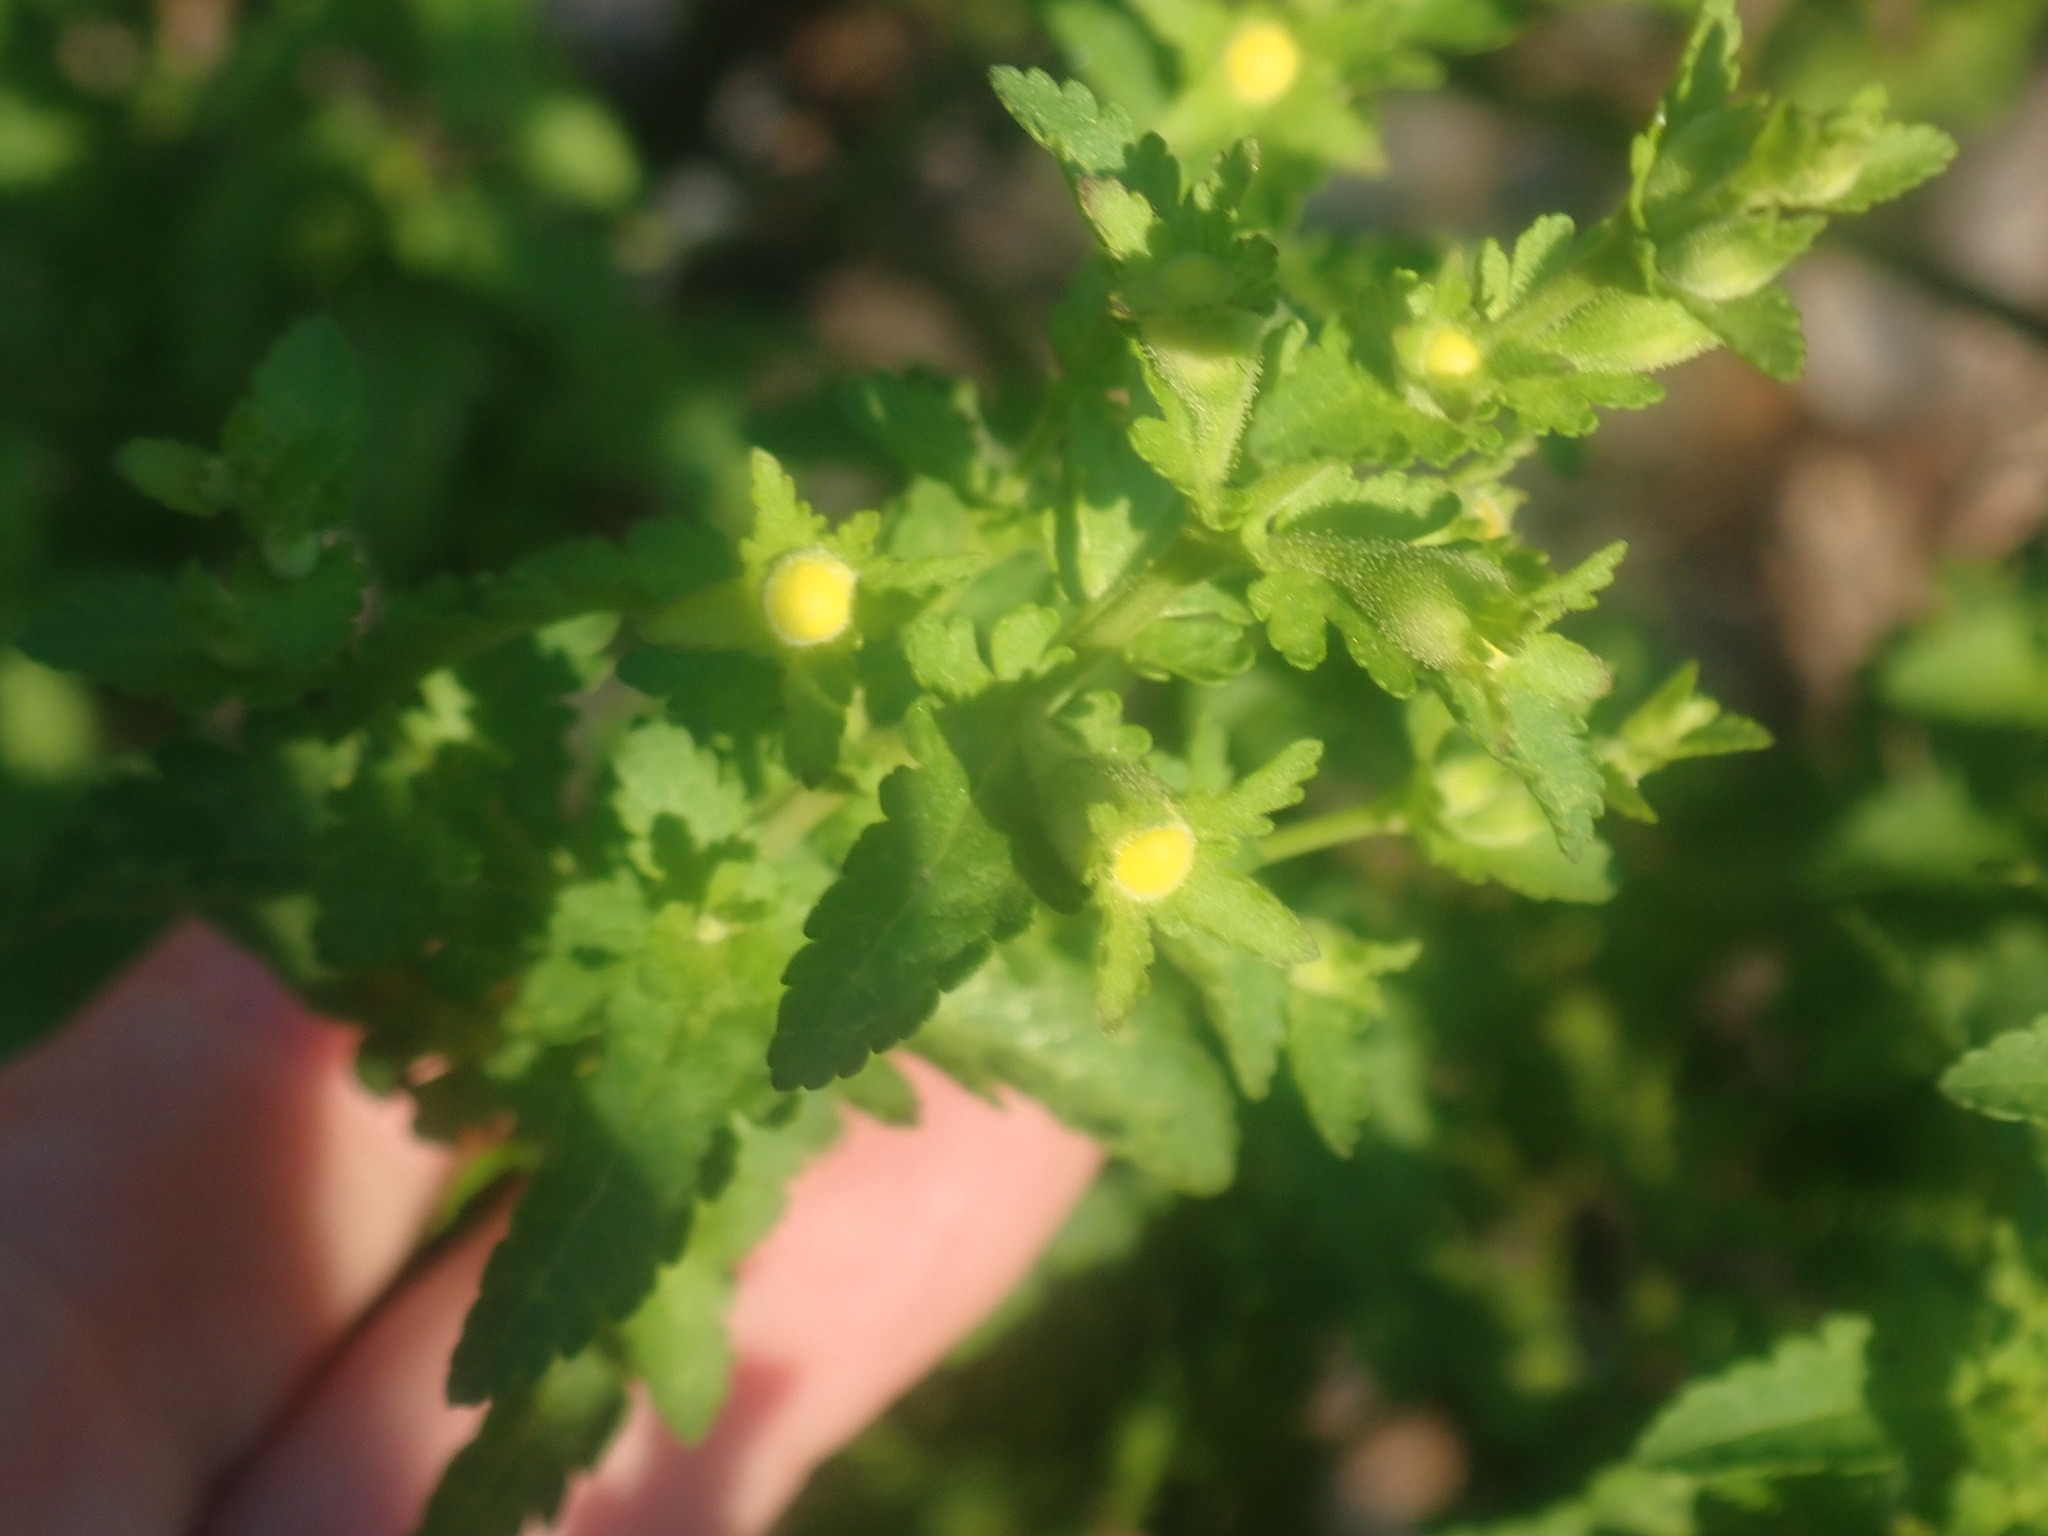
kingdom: Plantae
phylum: Tracheophyta
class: Magnoliopsida
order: Lamiales
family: Orobanchaceae
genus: Aureolaria
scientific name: Aureolaria pedicularia
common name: Annual false foxglove
